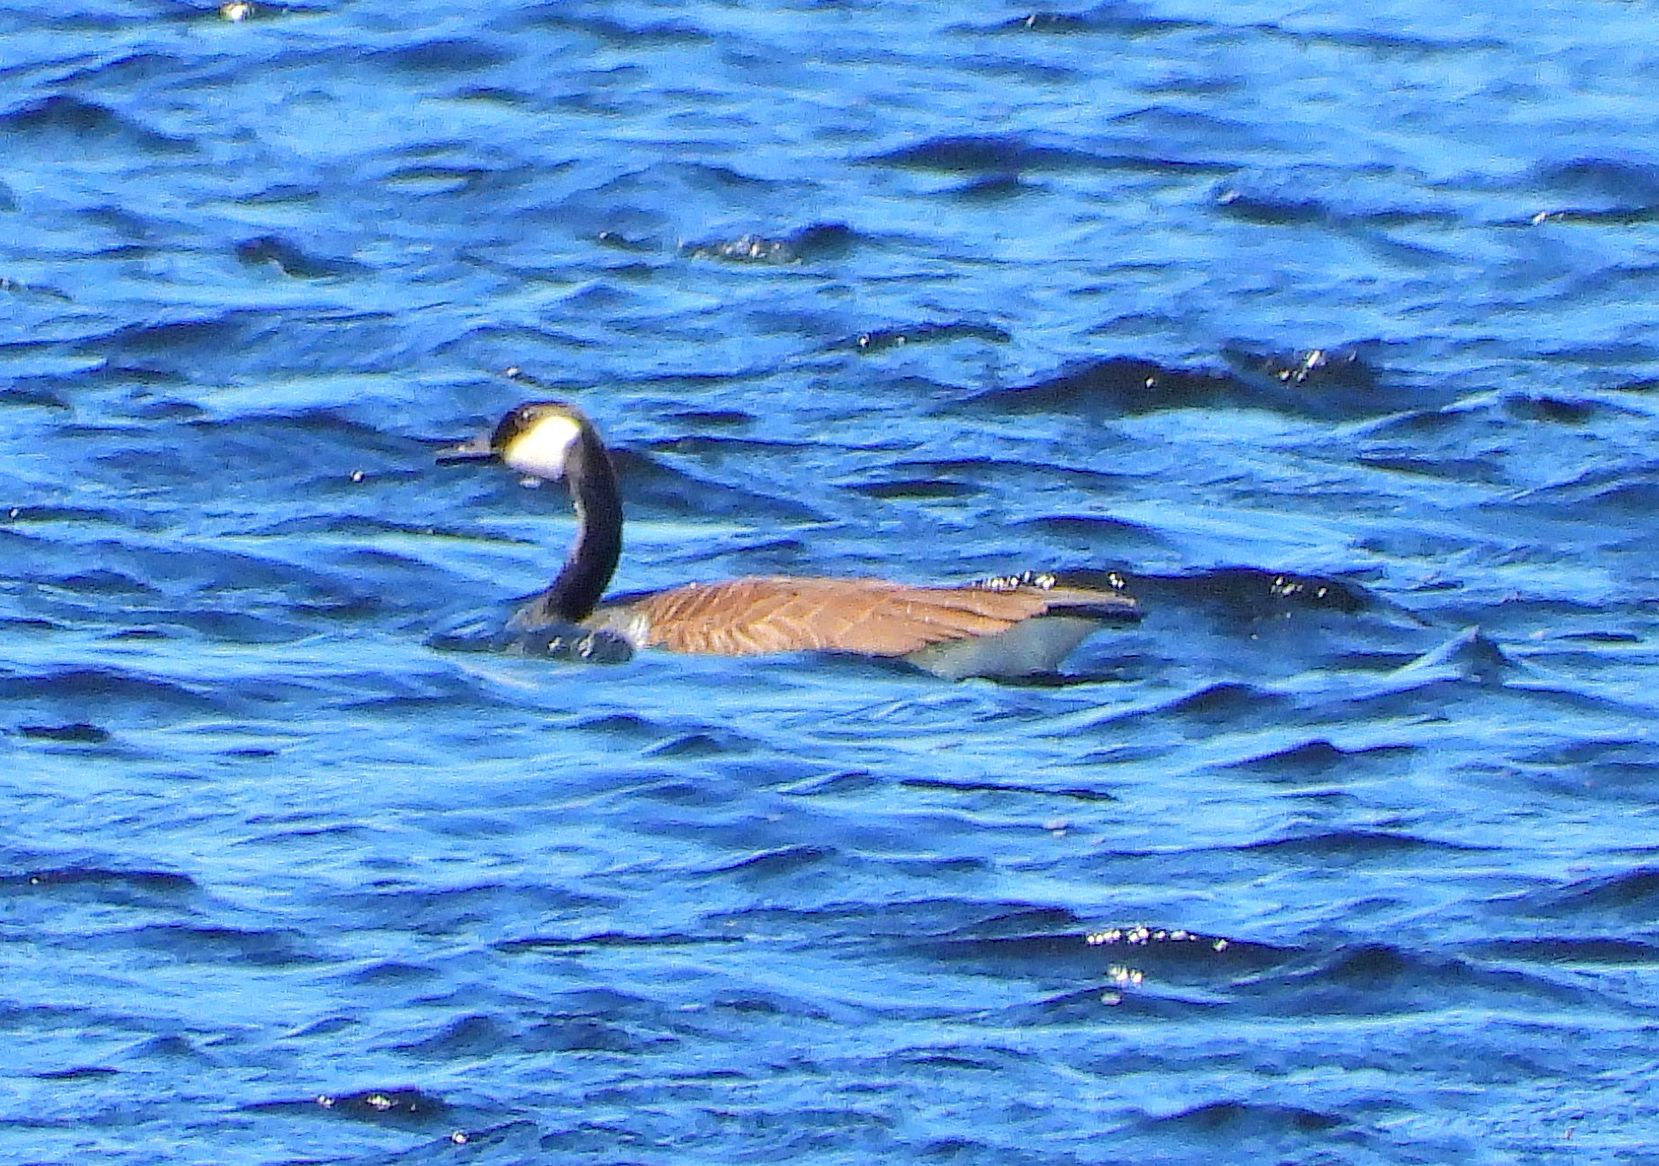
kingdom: Animalia
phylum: Chordata
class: Aves
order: Anseriformes
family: Anatidae
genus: Branta
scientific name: Branta canadensis
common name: Canada goose
